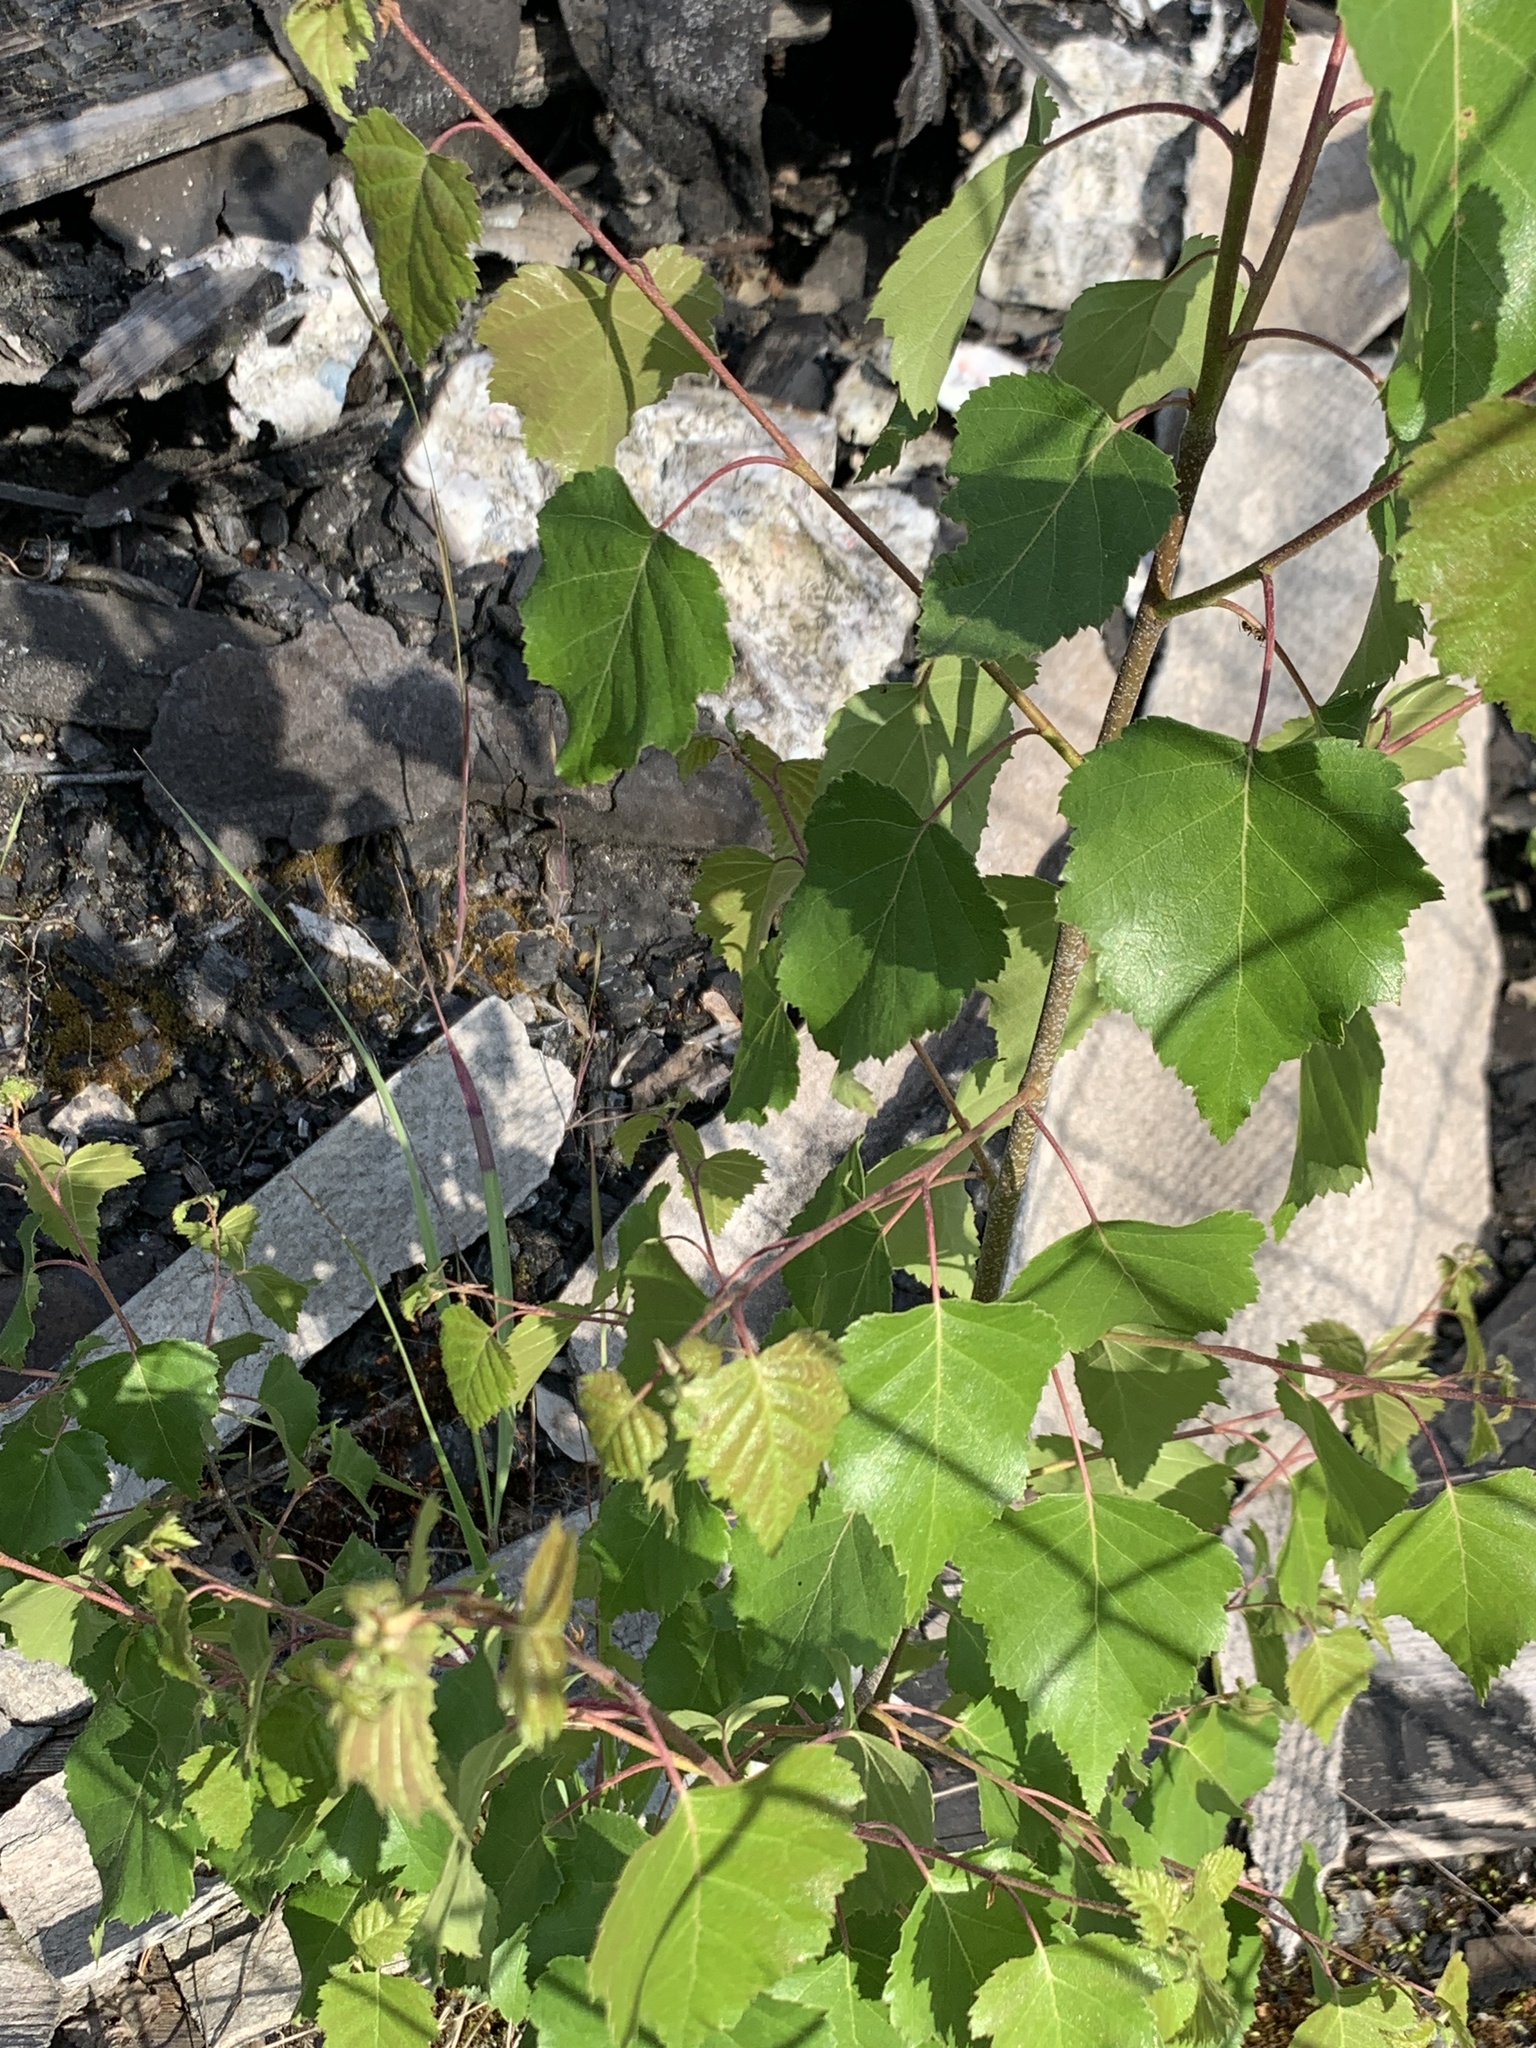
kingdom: Plantae
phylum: Tracheophyta
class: Magnoliopsida
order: Fagales
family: Betulaceae
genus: Betula
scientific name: Betula pendula
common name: Silver birch
